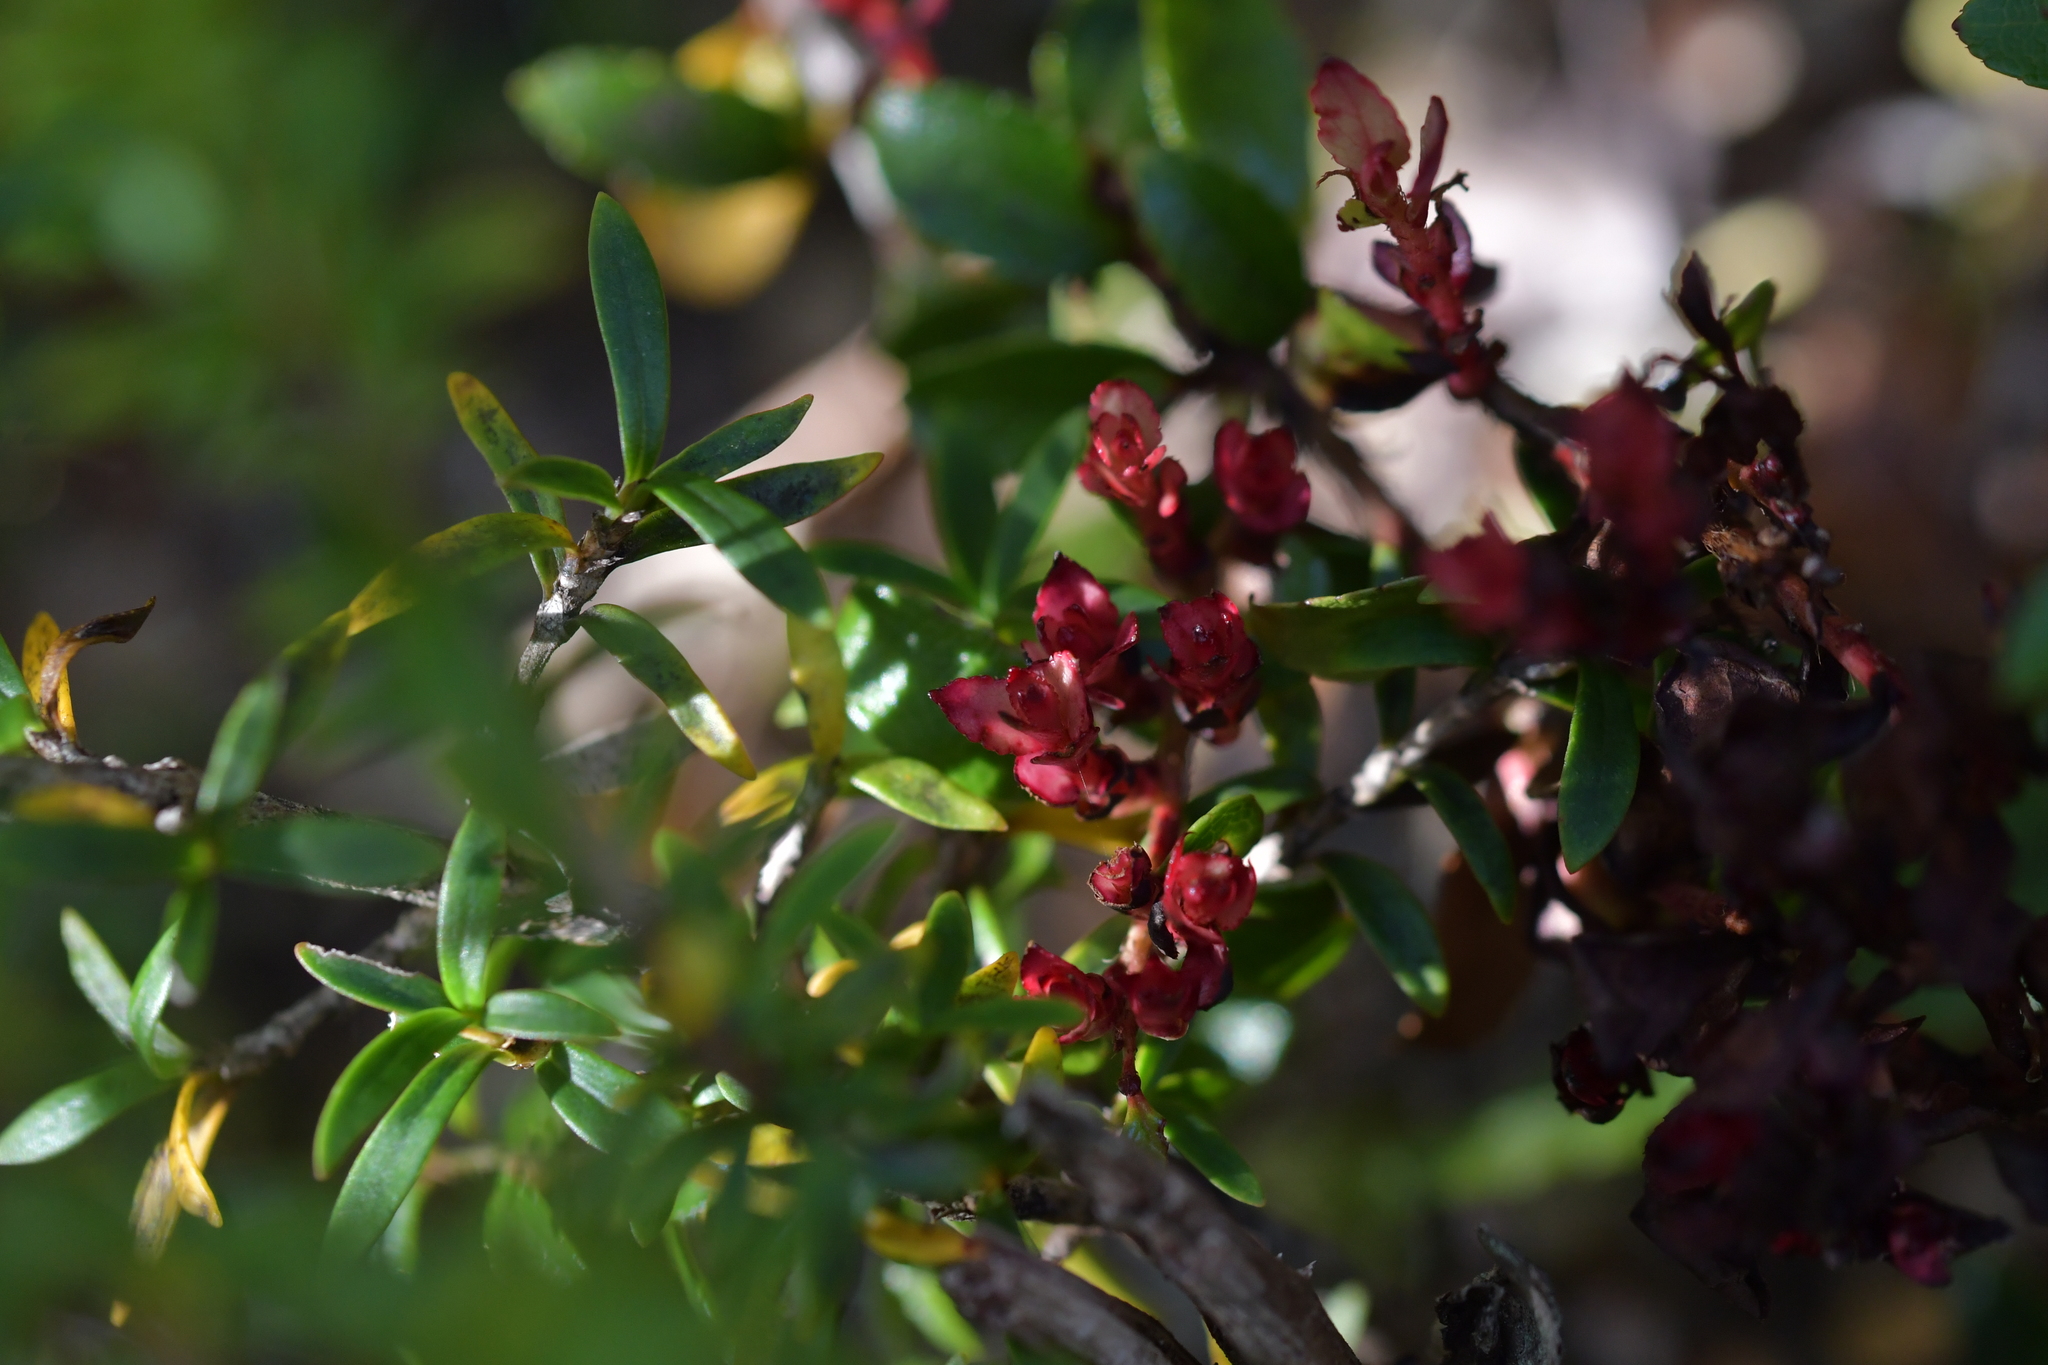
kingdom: Plantae
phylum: Tracheophyta
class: Magnoliopsida
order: Ericales
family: Ericaceae
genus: Archeria
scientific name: Archeria traversii
